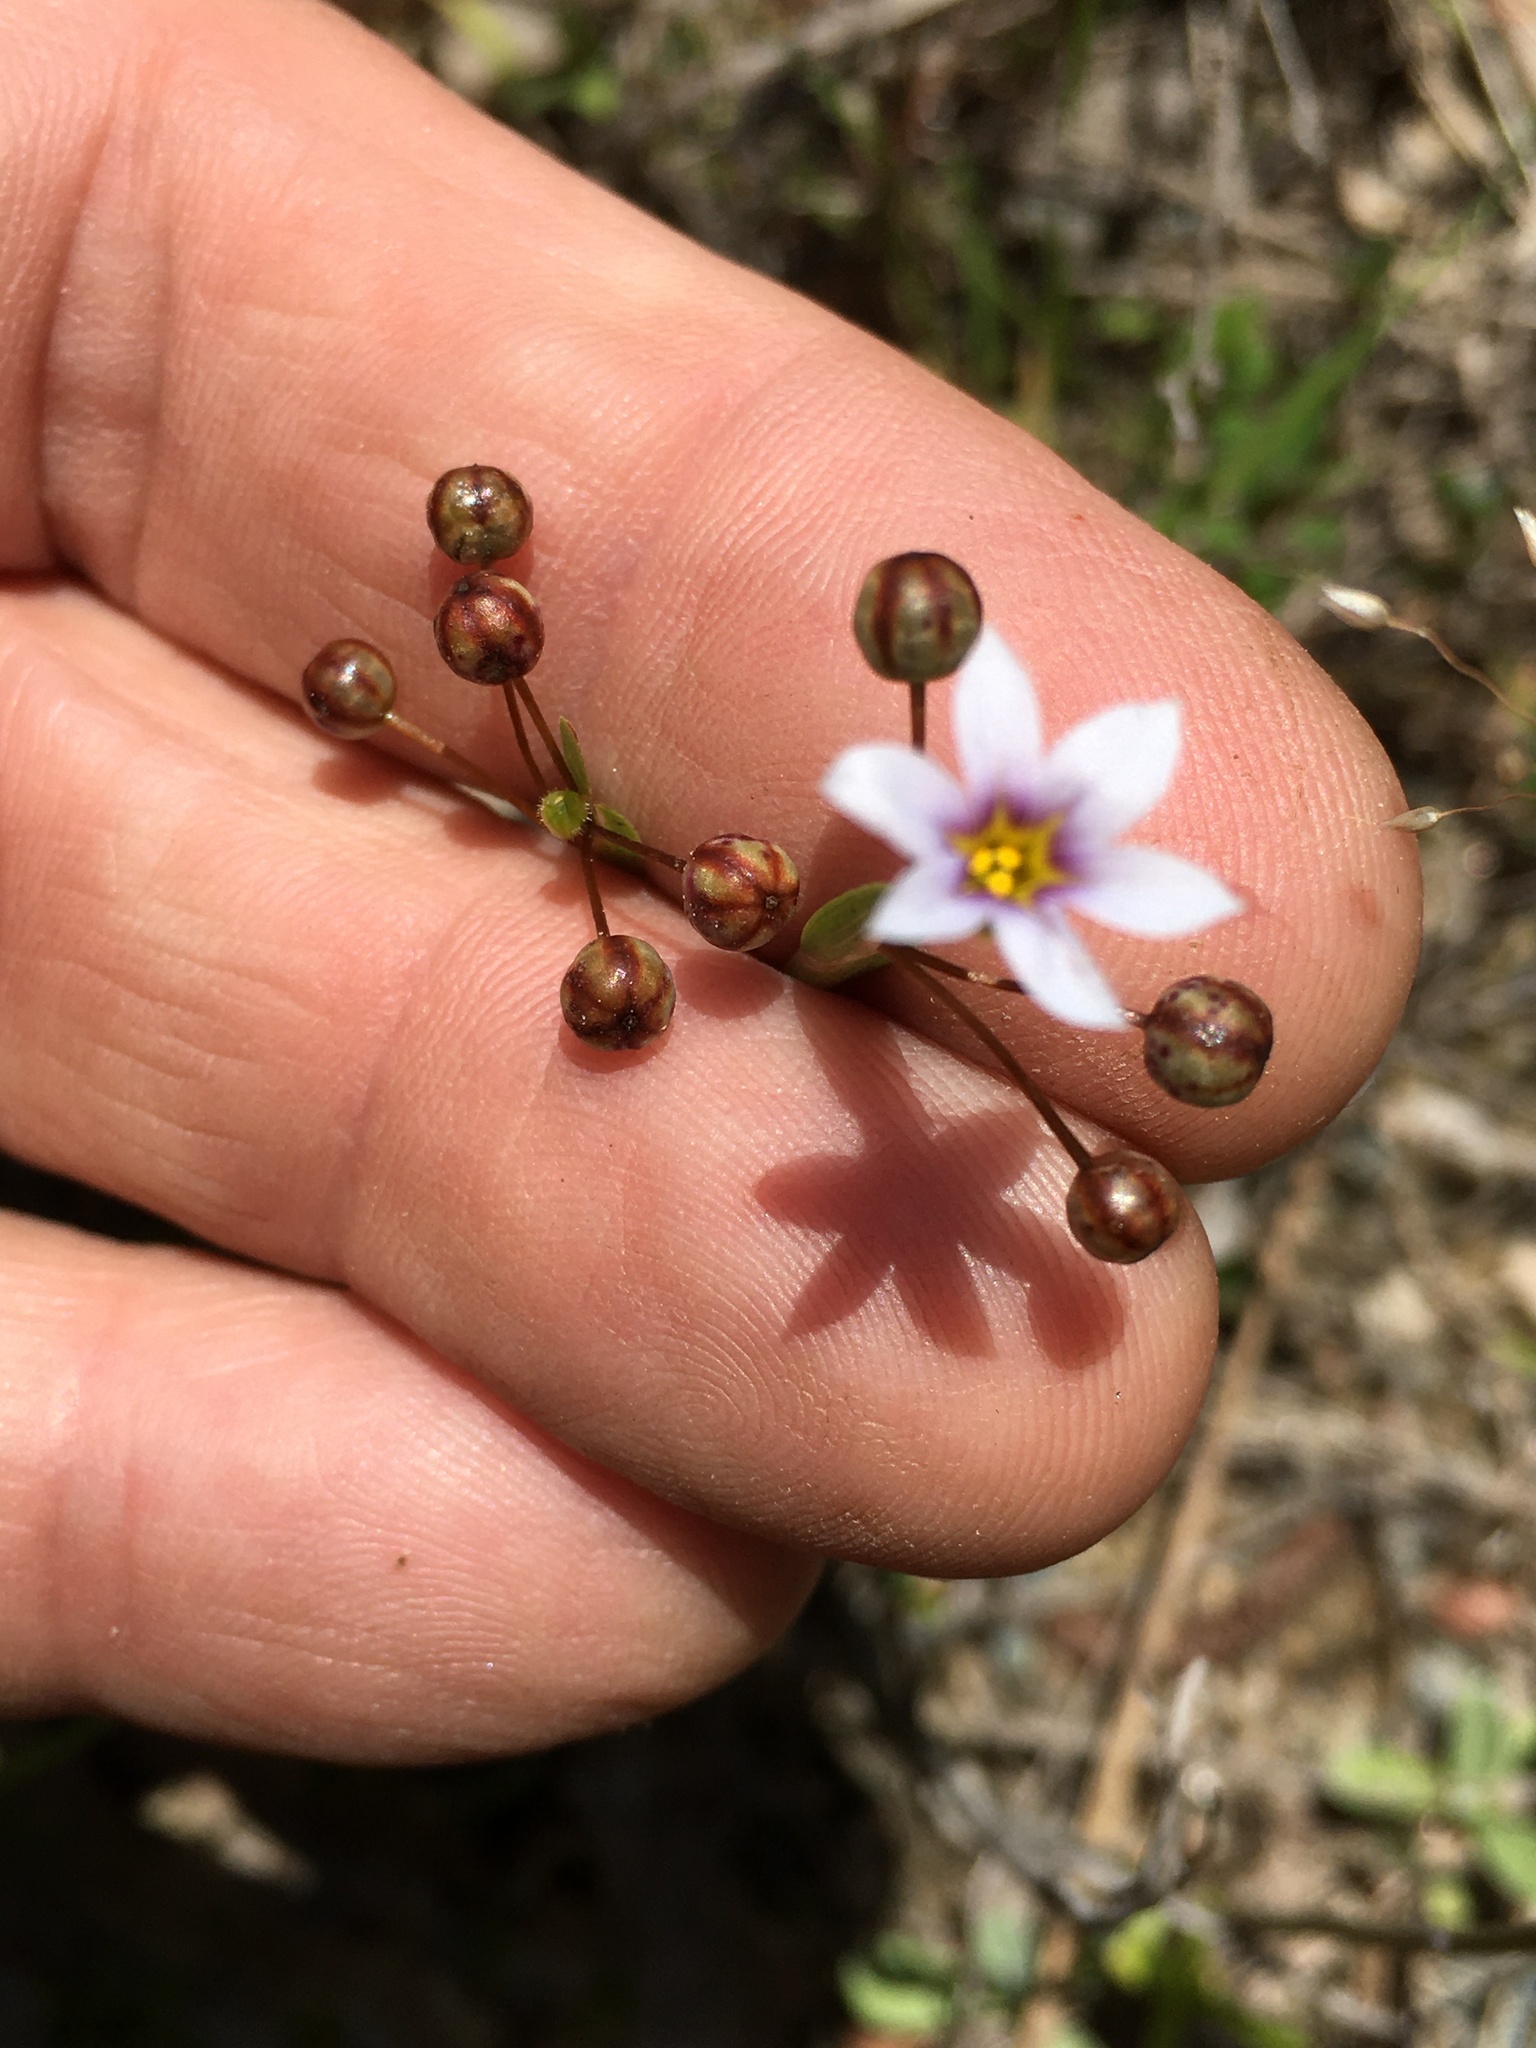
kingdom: Plantae
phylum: Tracheophyta
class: Liliopsida
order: Asparagales
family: Iridaceae
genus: Sisyrinchium
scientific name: Sisyrinchium micranthum
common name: Bermuda pigroot
